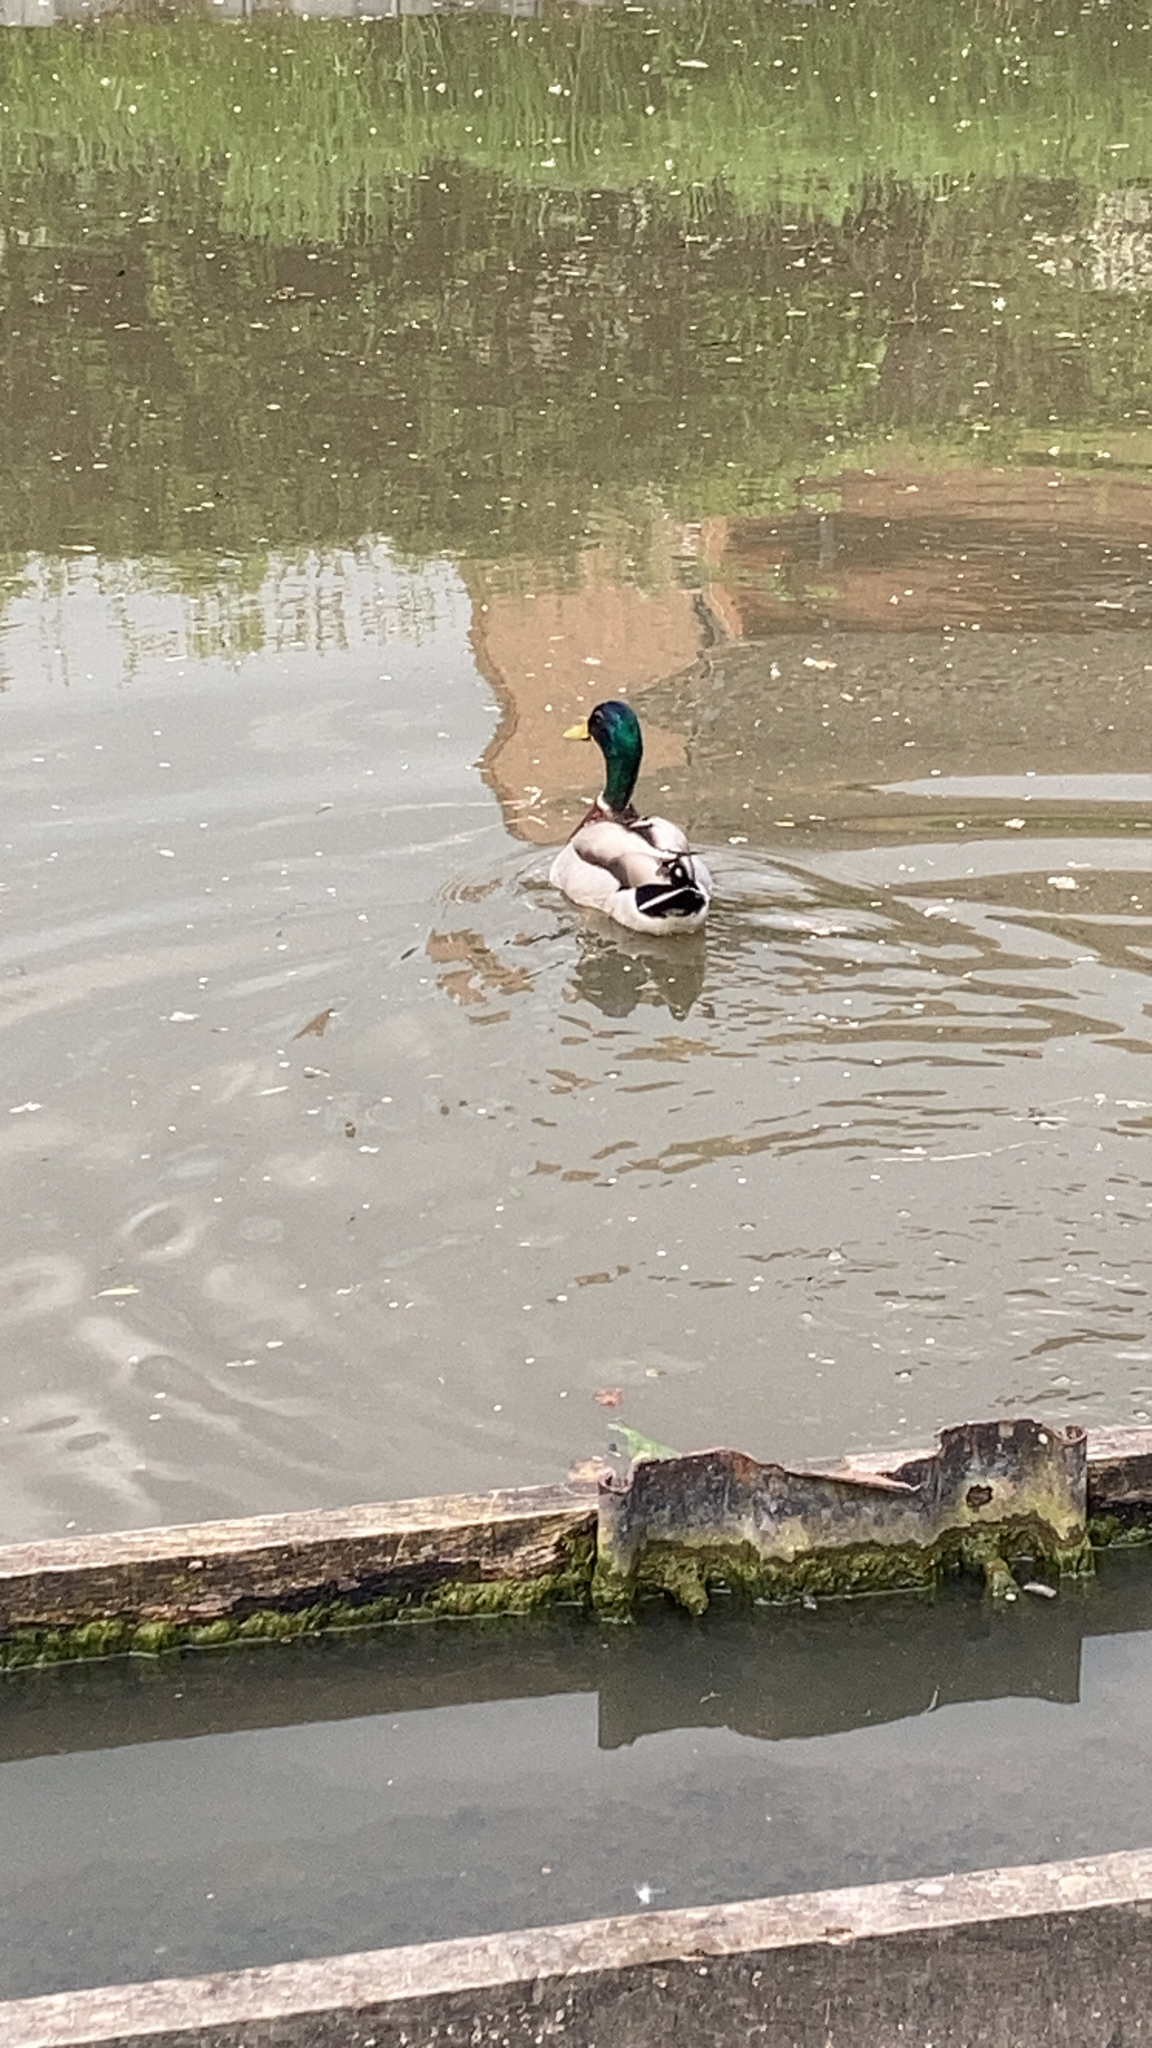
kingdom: Animalia
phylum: Chordata
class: Aves
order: Anseriformes
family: Anatidae
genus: Anas
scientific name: Anas platyrhynchos
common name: Mallard
